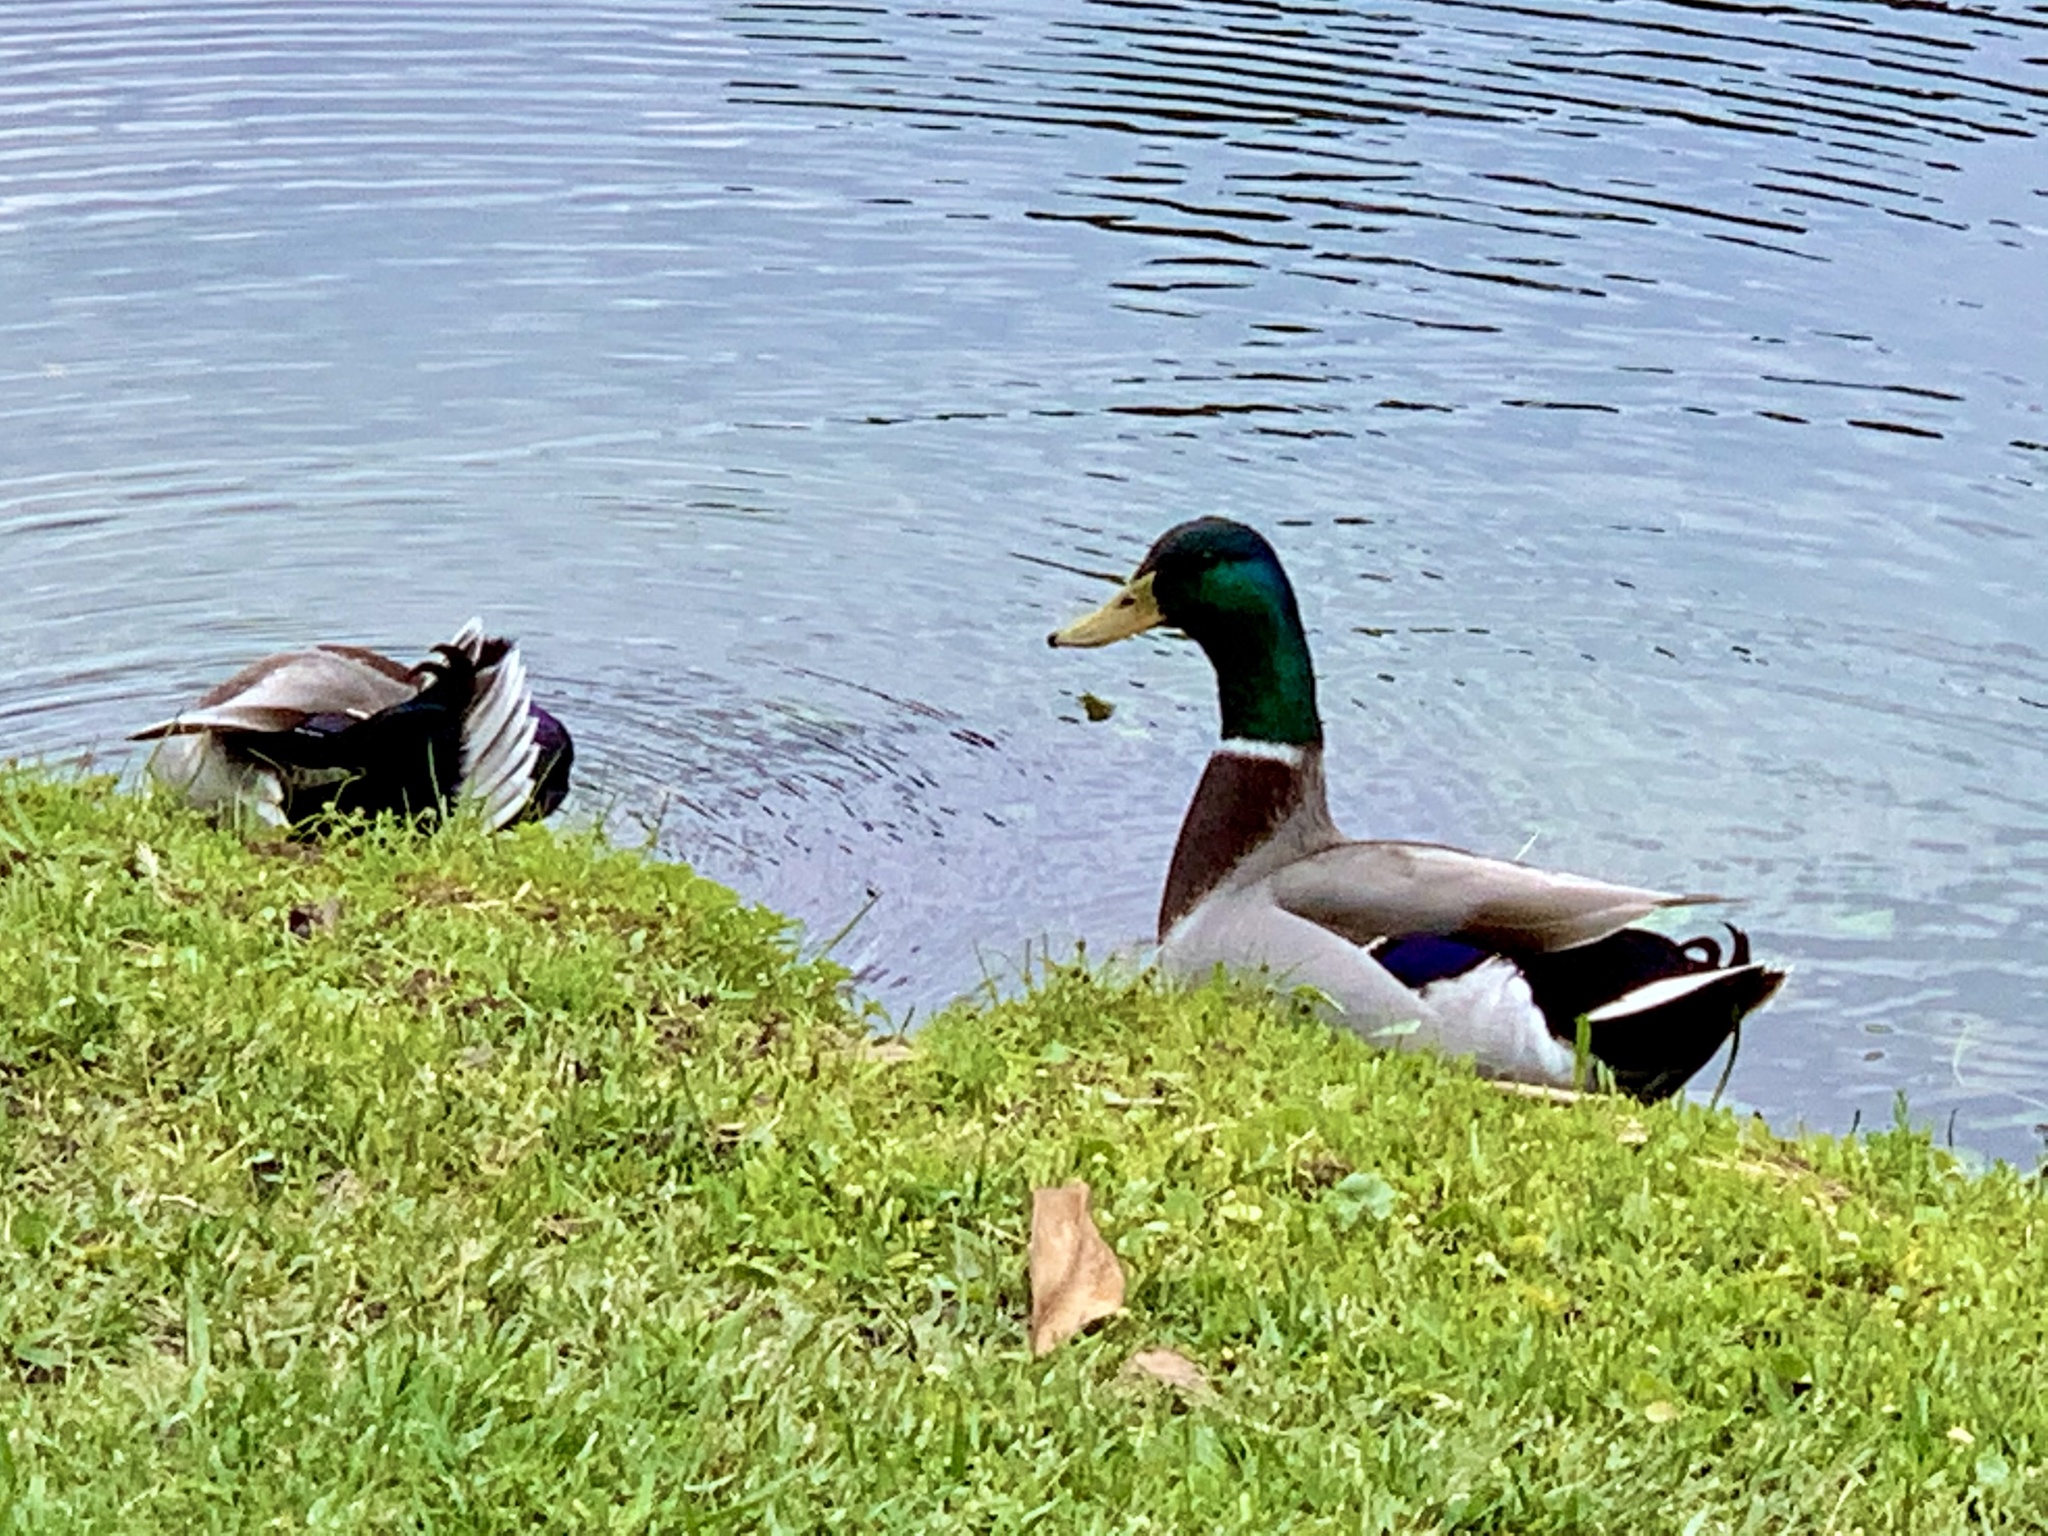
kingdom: Animalia
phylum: Chordata
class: Aves
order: Anseriformes
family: Anatidae
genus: Anas
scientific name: Anas platyrhynchos
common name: Mallard
